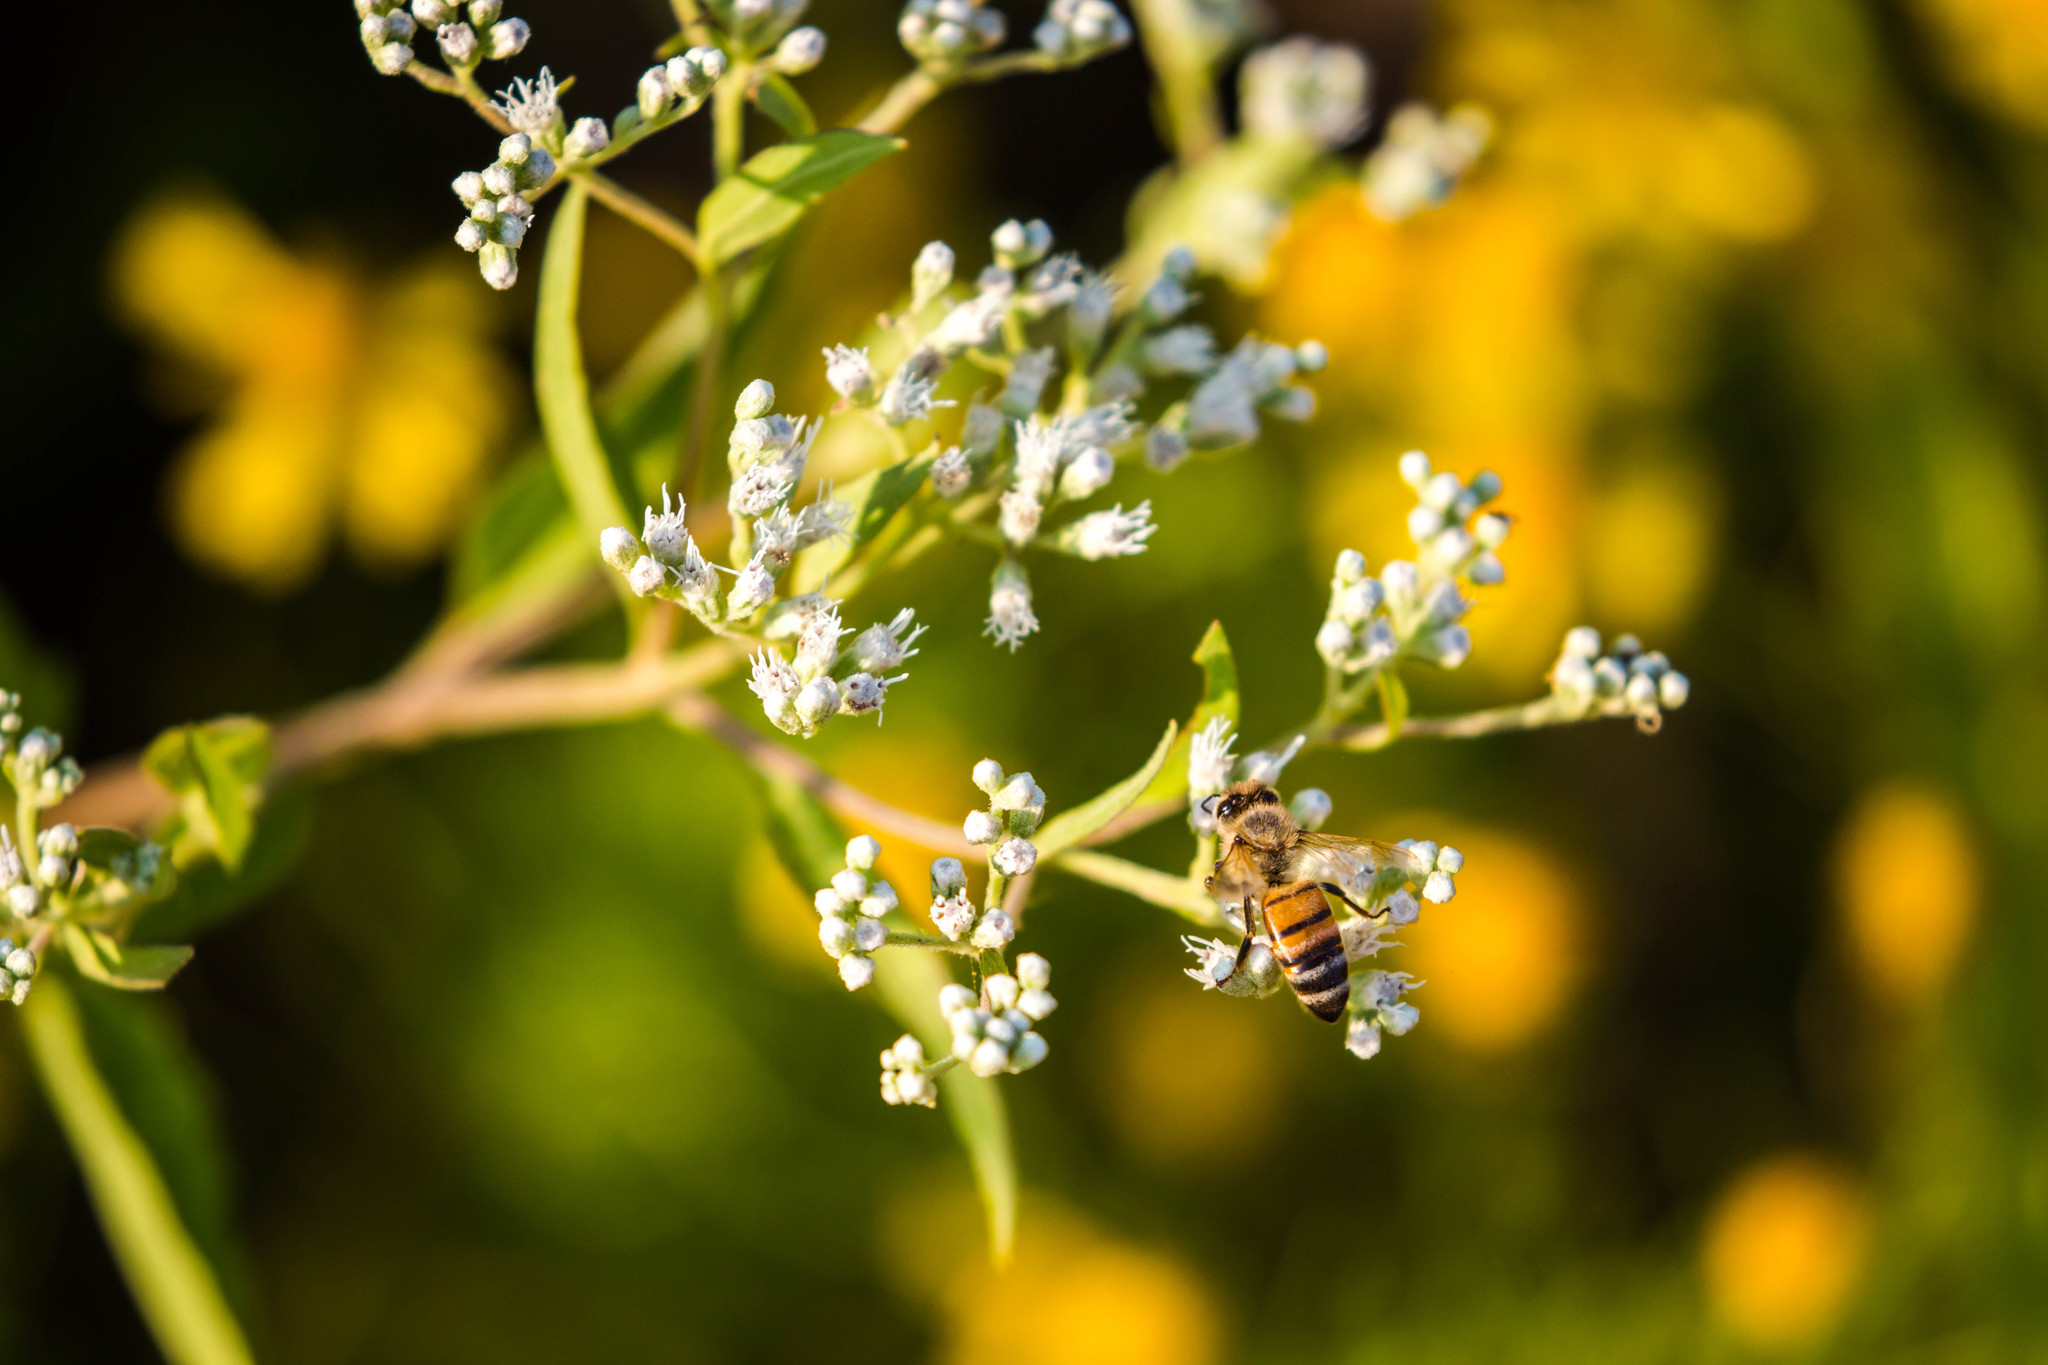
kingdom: Animalia
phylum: Arthropoda
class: Insecta
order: Hymenoptera
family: Apidae
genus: Apis
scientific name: Apis mellifera
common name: Honey bee
